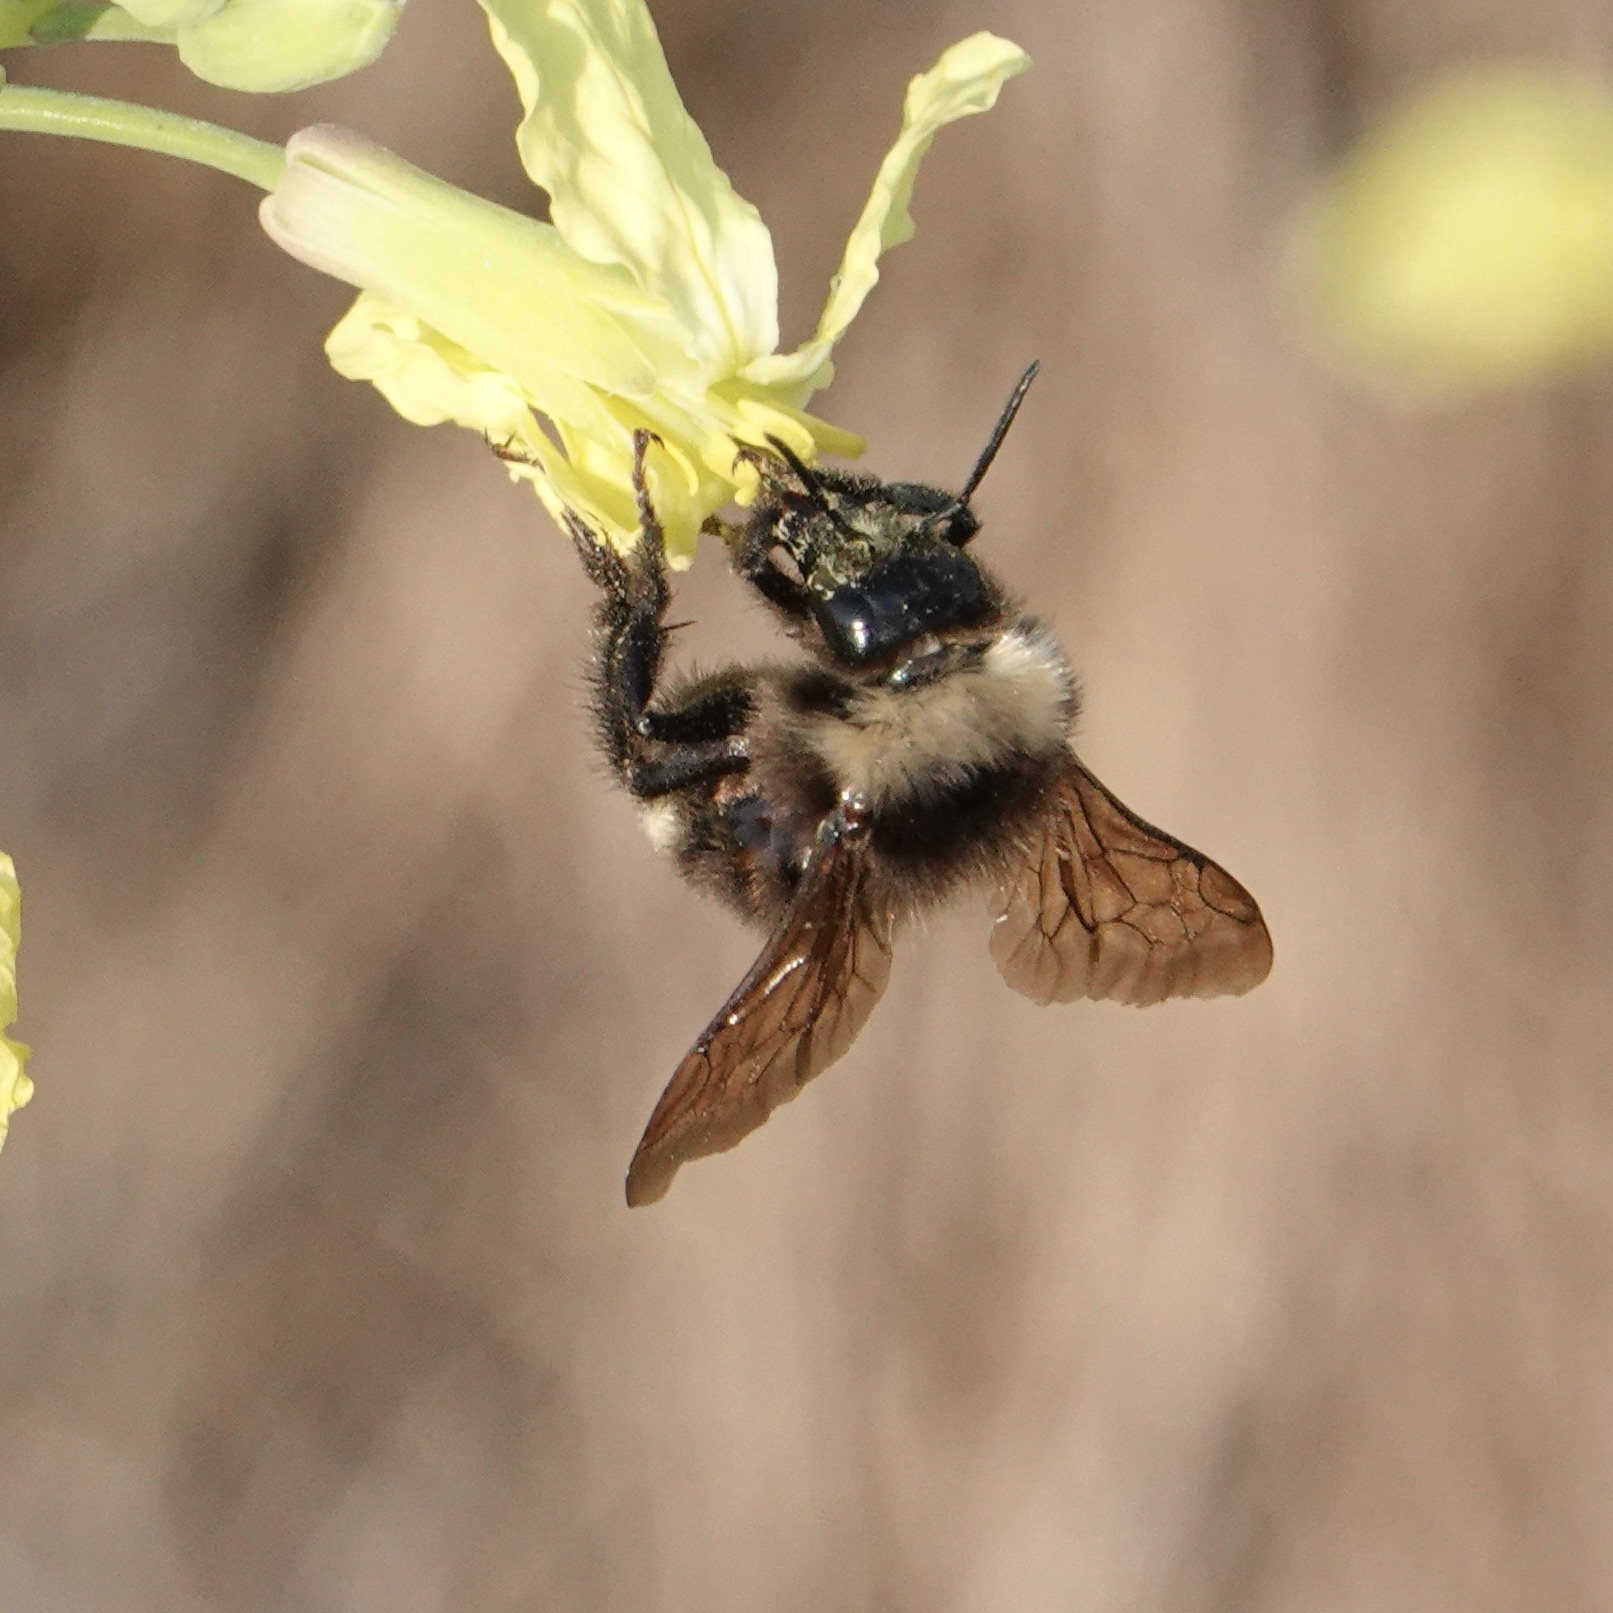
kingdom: Animalia
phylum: Arthropoda
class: Insecta
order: Hymenoptera
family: Apidae
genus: Apis
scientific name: Apis mellifera
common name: Honey bee
